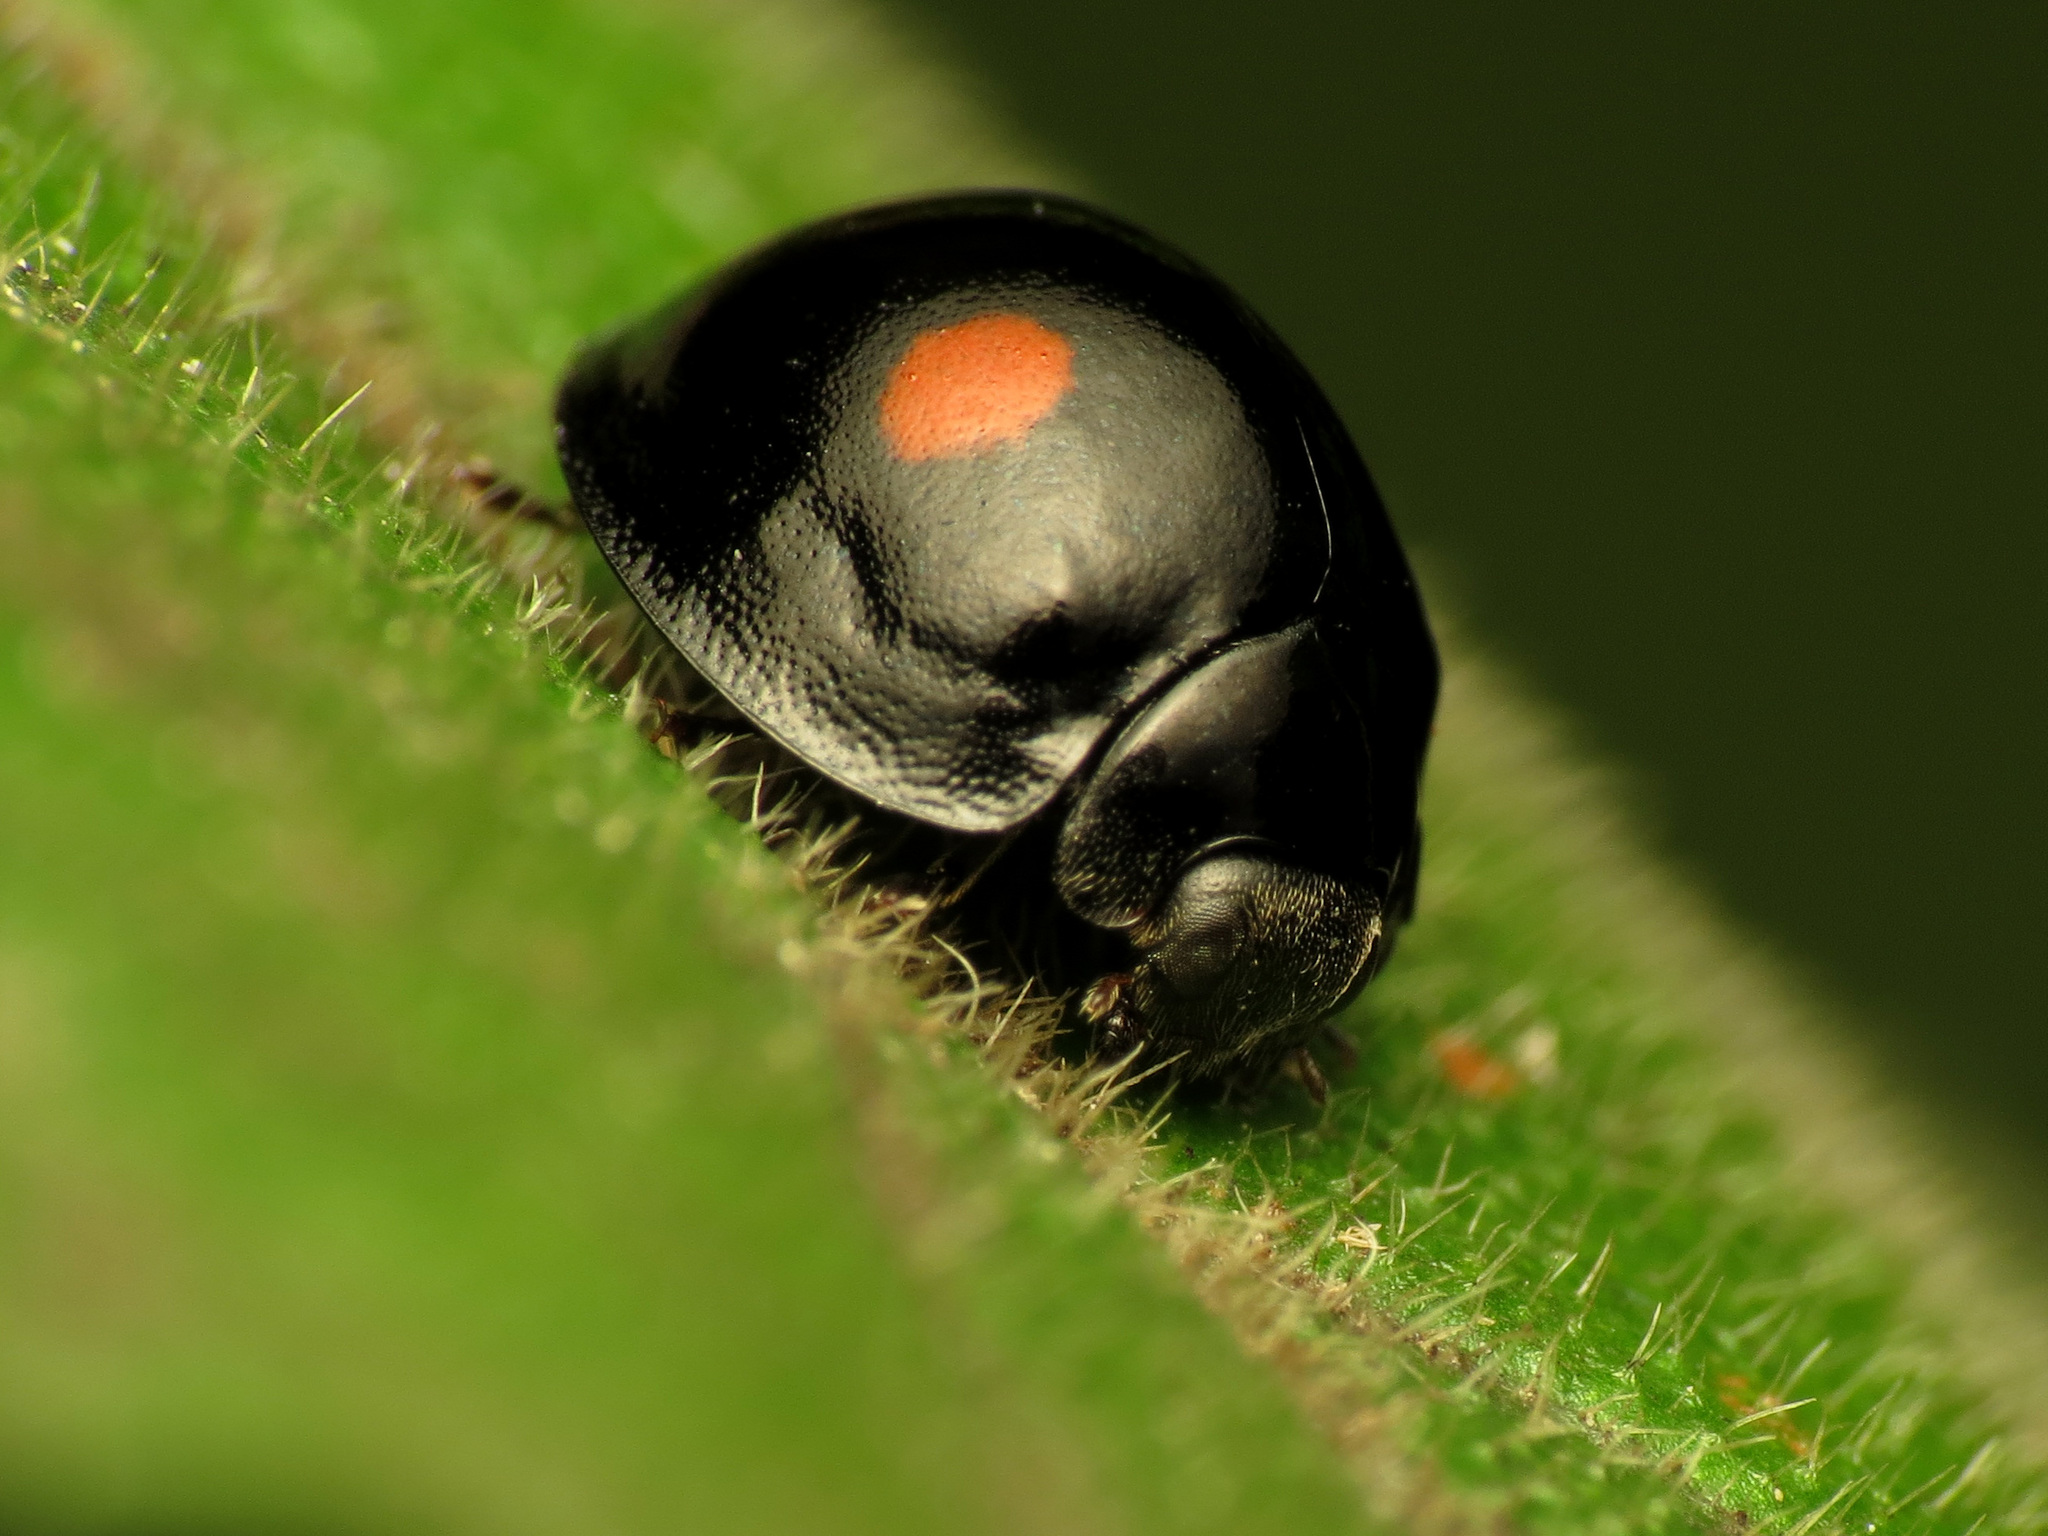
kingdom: Animalia
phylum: Arthropoda
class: Insecta
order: Coleoptera
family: Coccinellidae
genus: Chilocorus
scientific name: Chilocorus stigma
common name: Twicestabbed lady beetle
